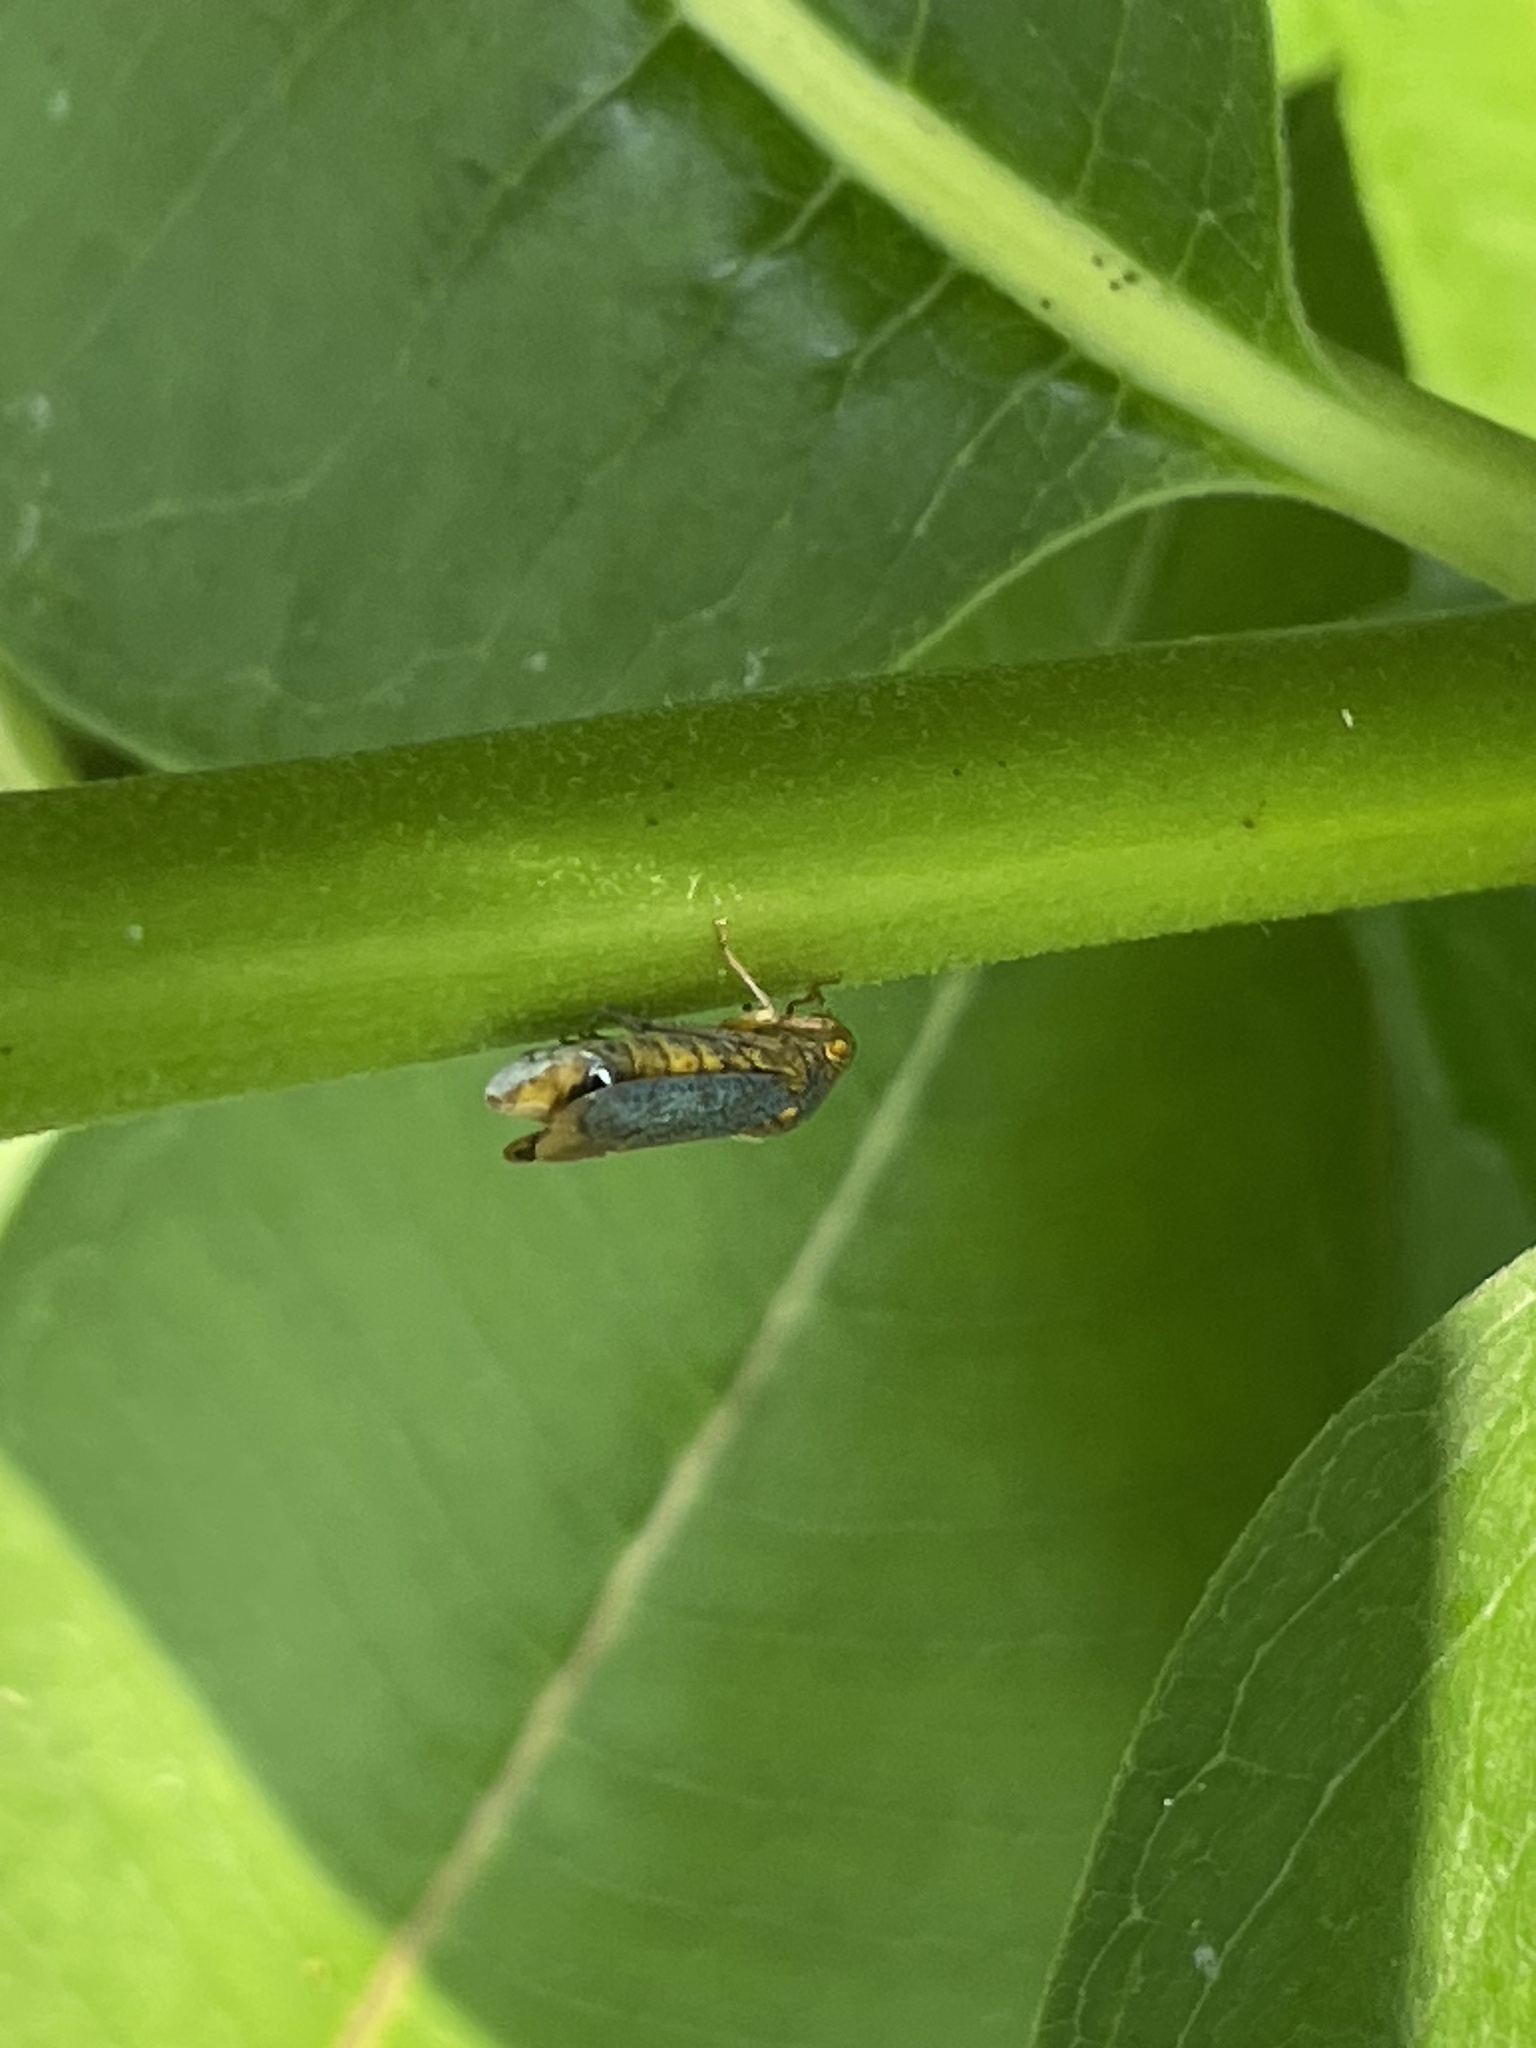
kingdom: Animalia
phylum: Arthropoda
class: Insecta
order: Hemiptera
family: Cicadellidae
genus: Oncometopia
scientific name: Oncometopia orbona
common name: Broad-headed sharpshooter
